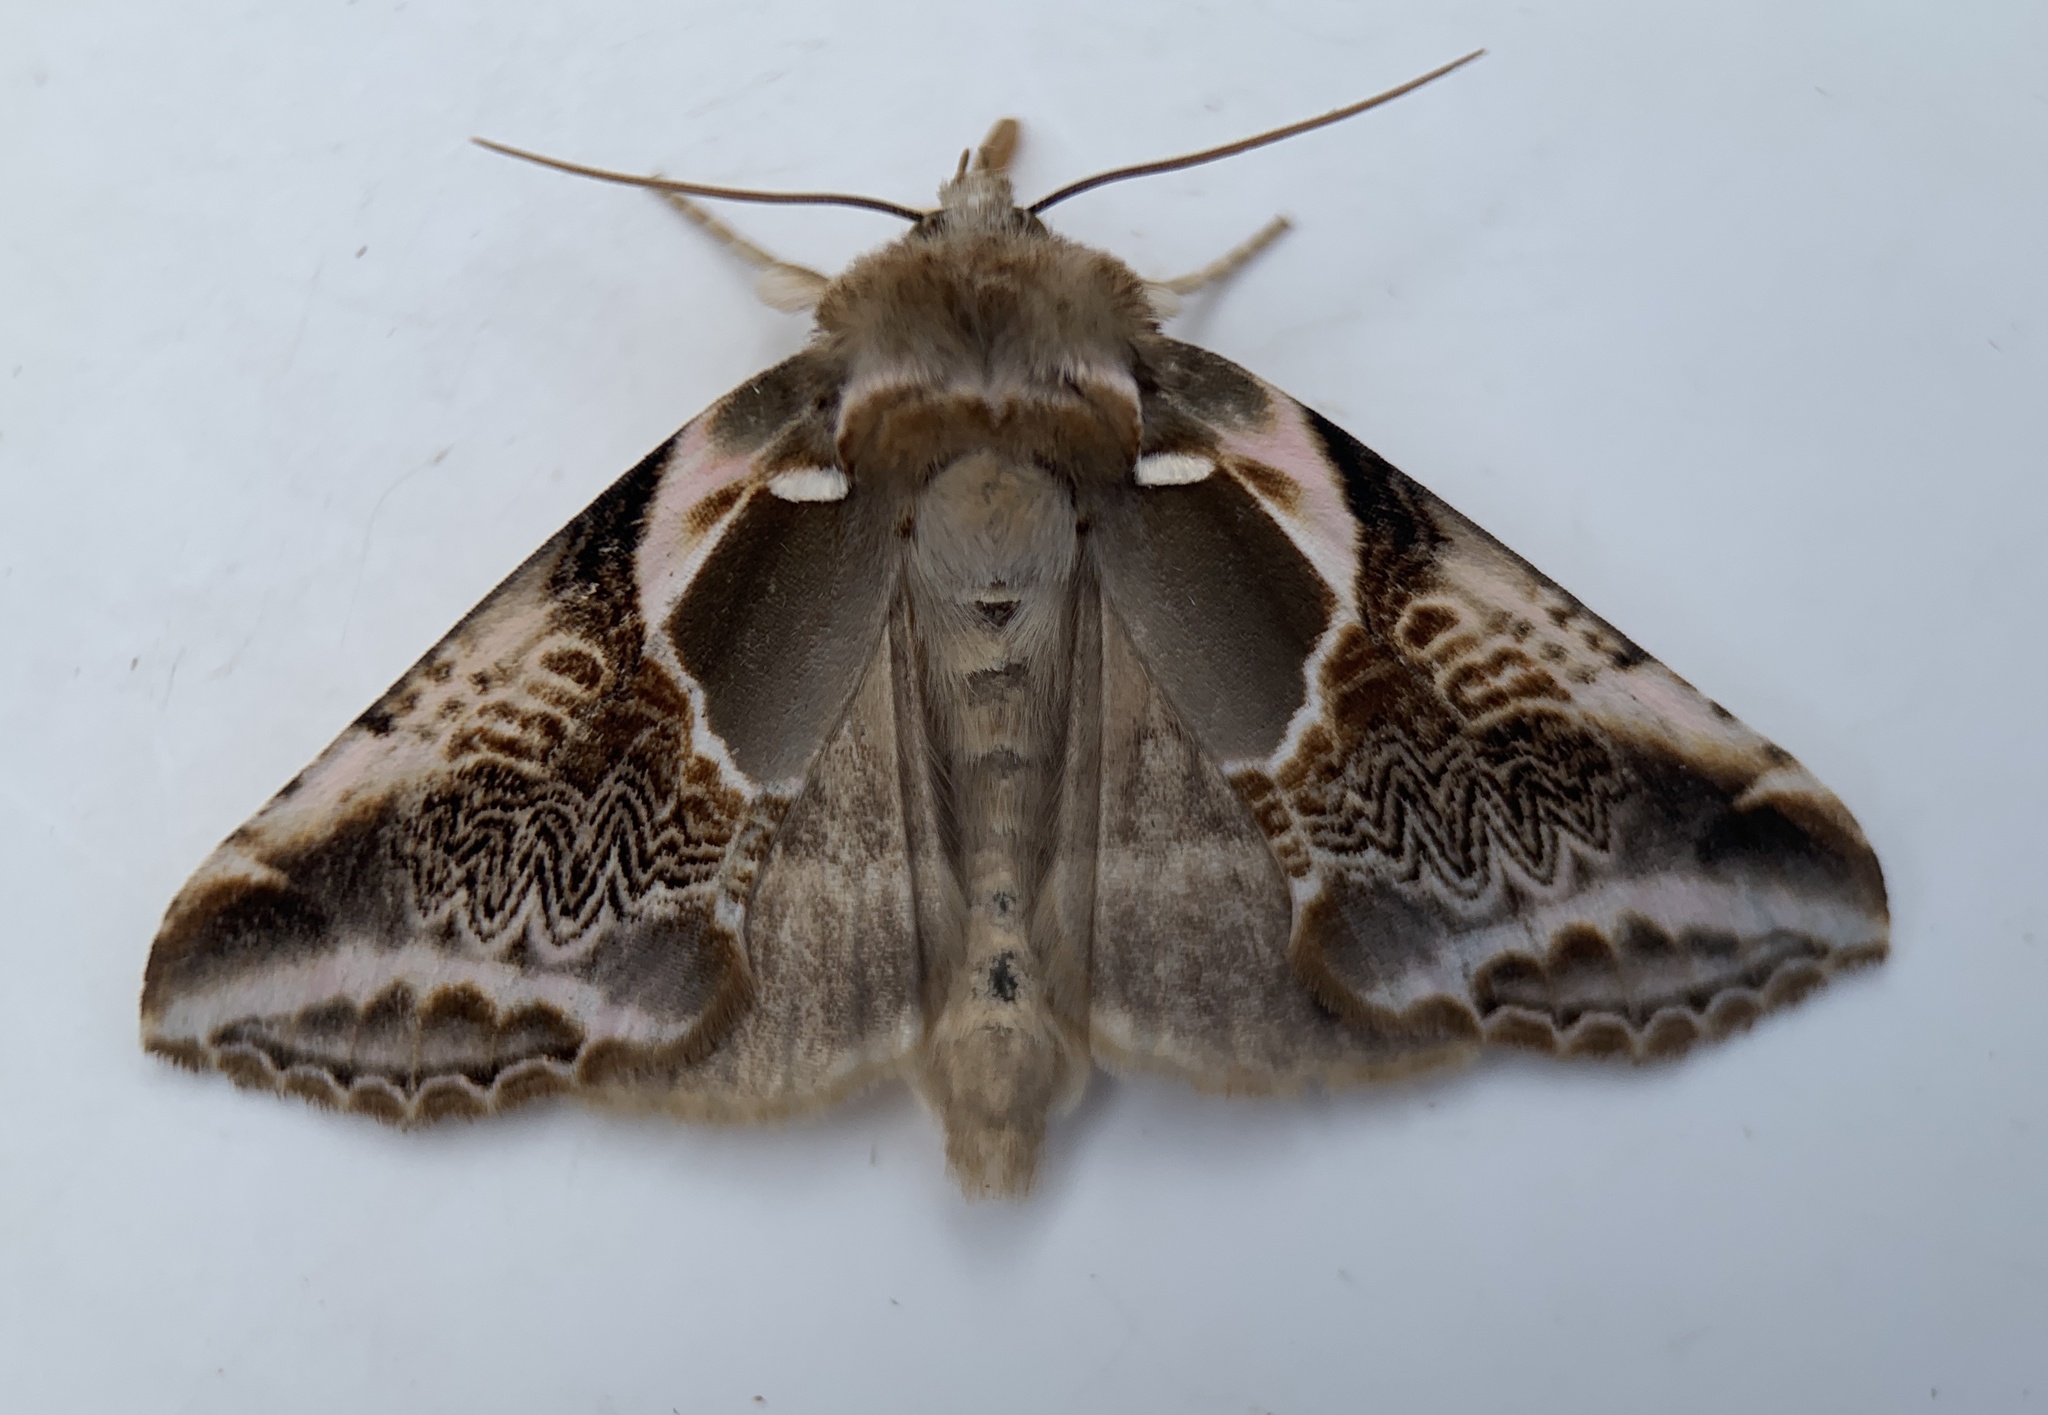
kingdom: Animalia
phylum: Arthropoda
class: Insecta
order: Lepidoptera
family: Drepanidae
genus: Habrosyne
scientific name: Habrosyne scripta
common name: Lettered habrosyne moth
